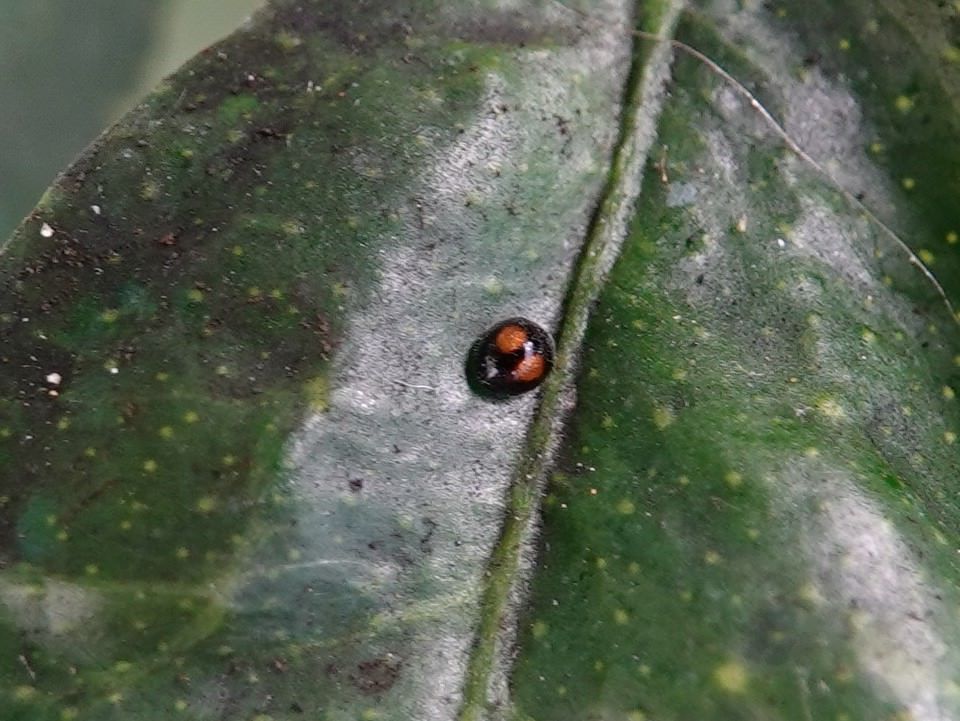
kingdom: Animalia
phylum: Arthropoda
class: Insecta
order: Coleoptera
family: Coccinellidae
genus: Serangium
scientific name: Serangium maculigerum
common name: Lady beetle
